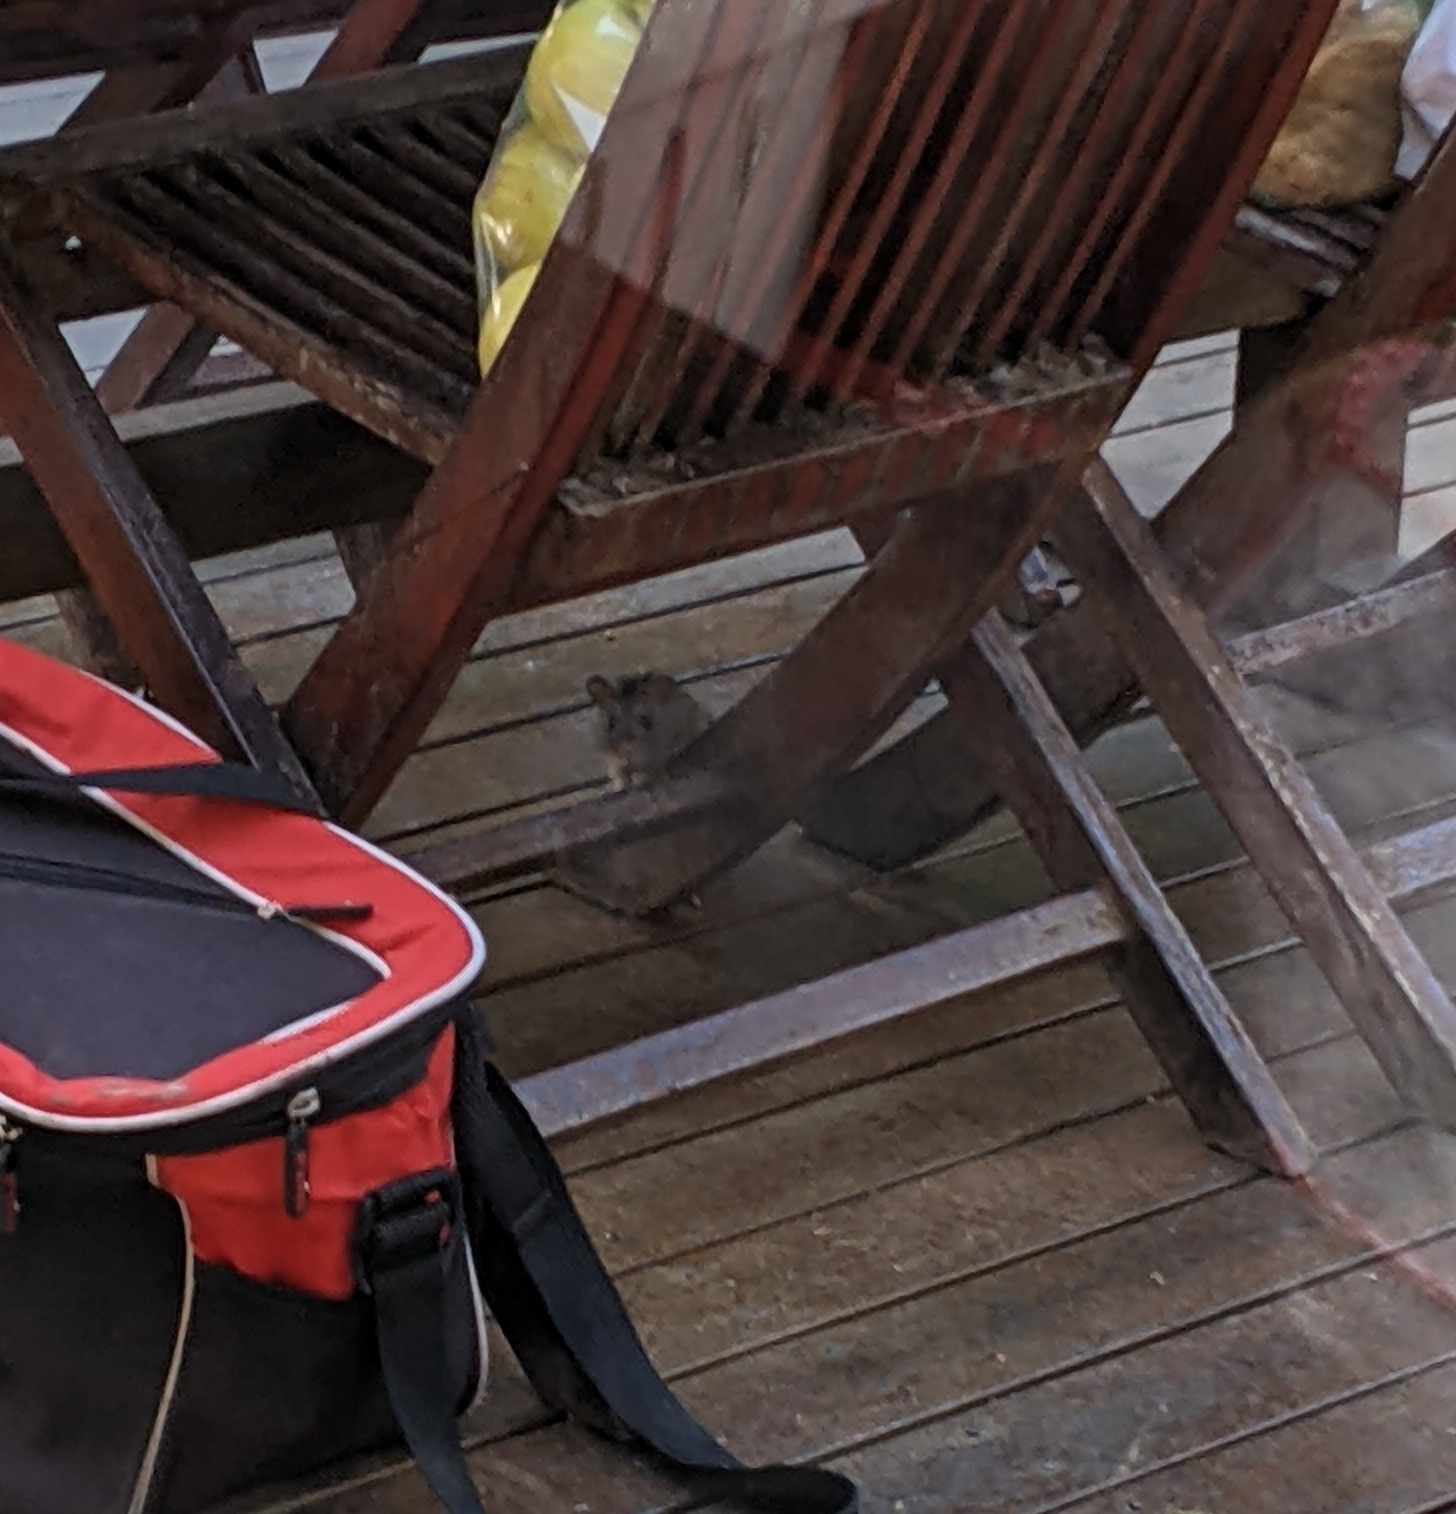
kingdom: Animalia
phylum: Chordata
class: Mammalia
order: Rodentia
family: Muridae
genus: Rattus
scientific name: Rattus rattus
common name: Black rat
